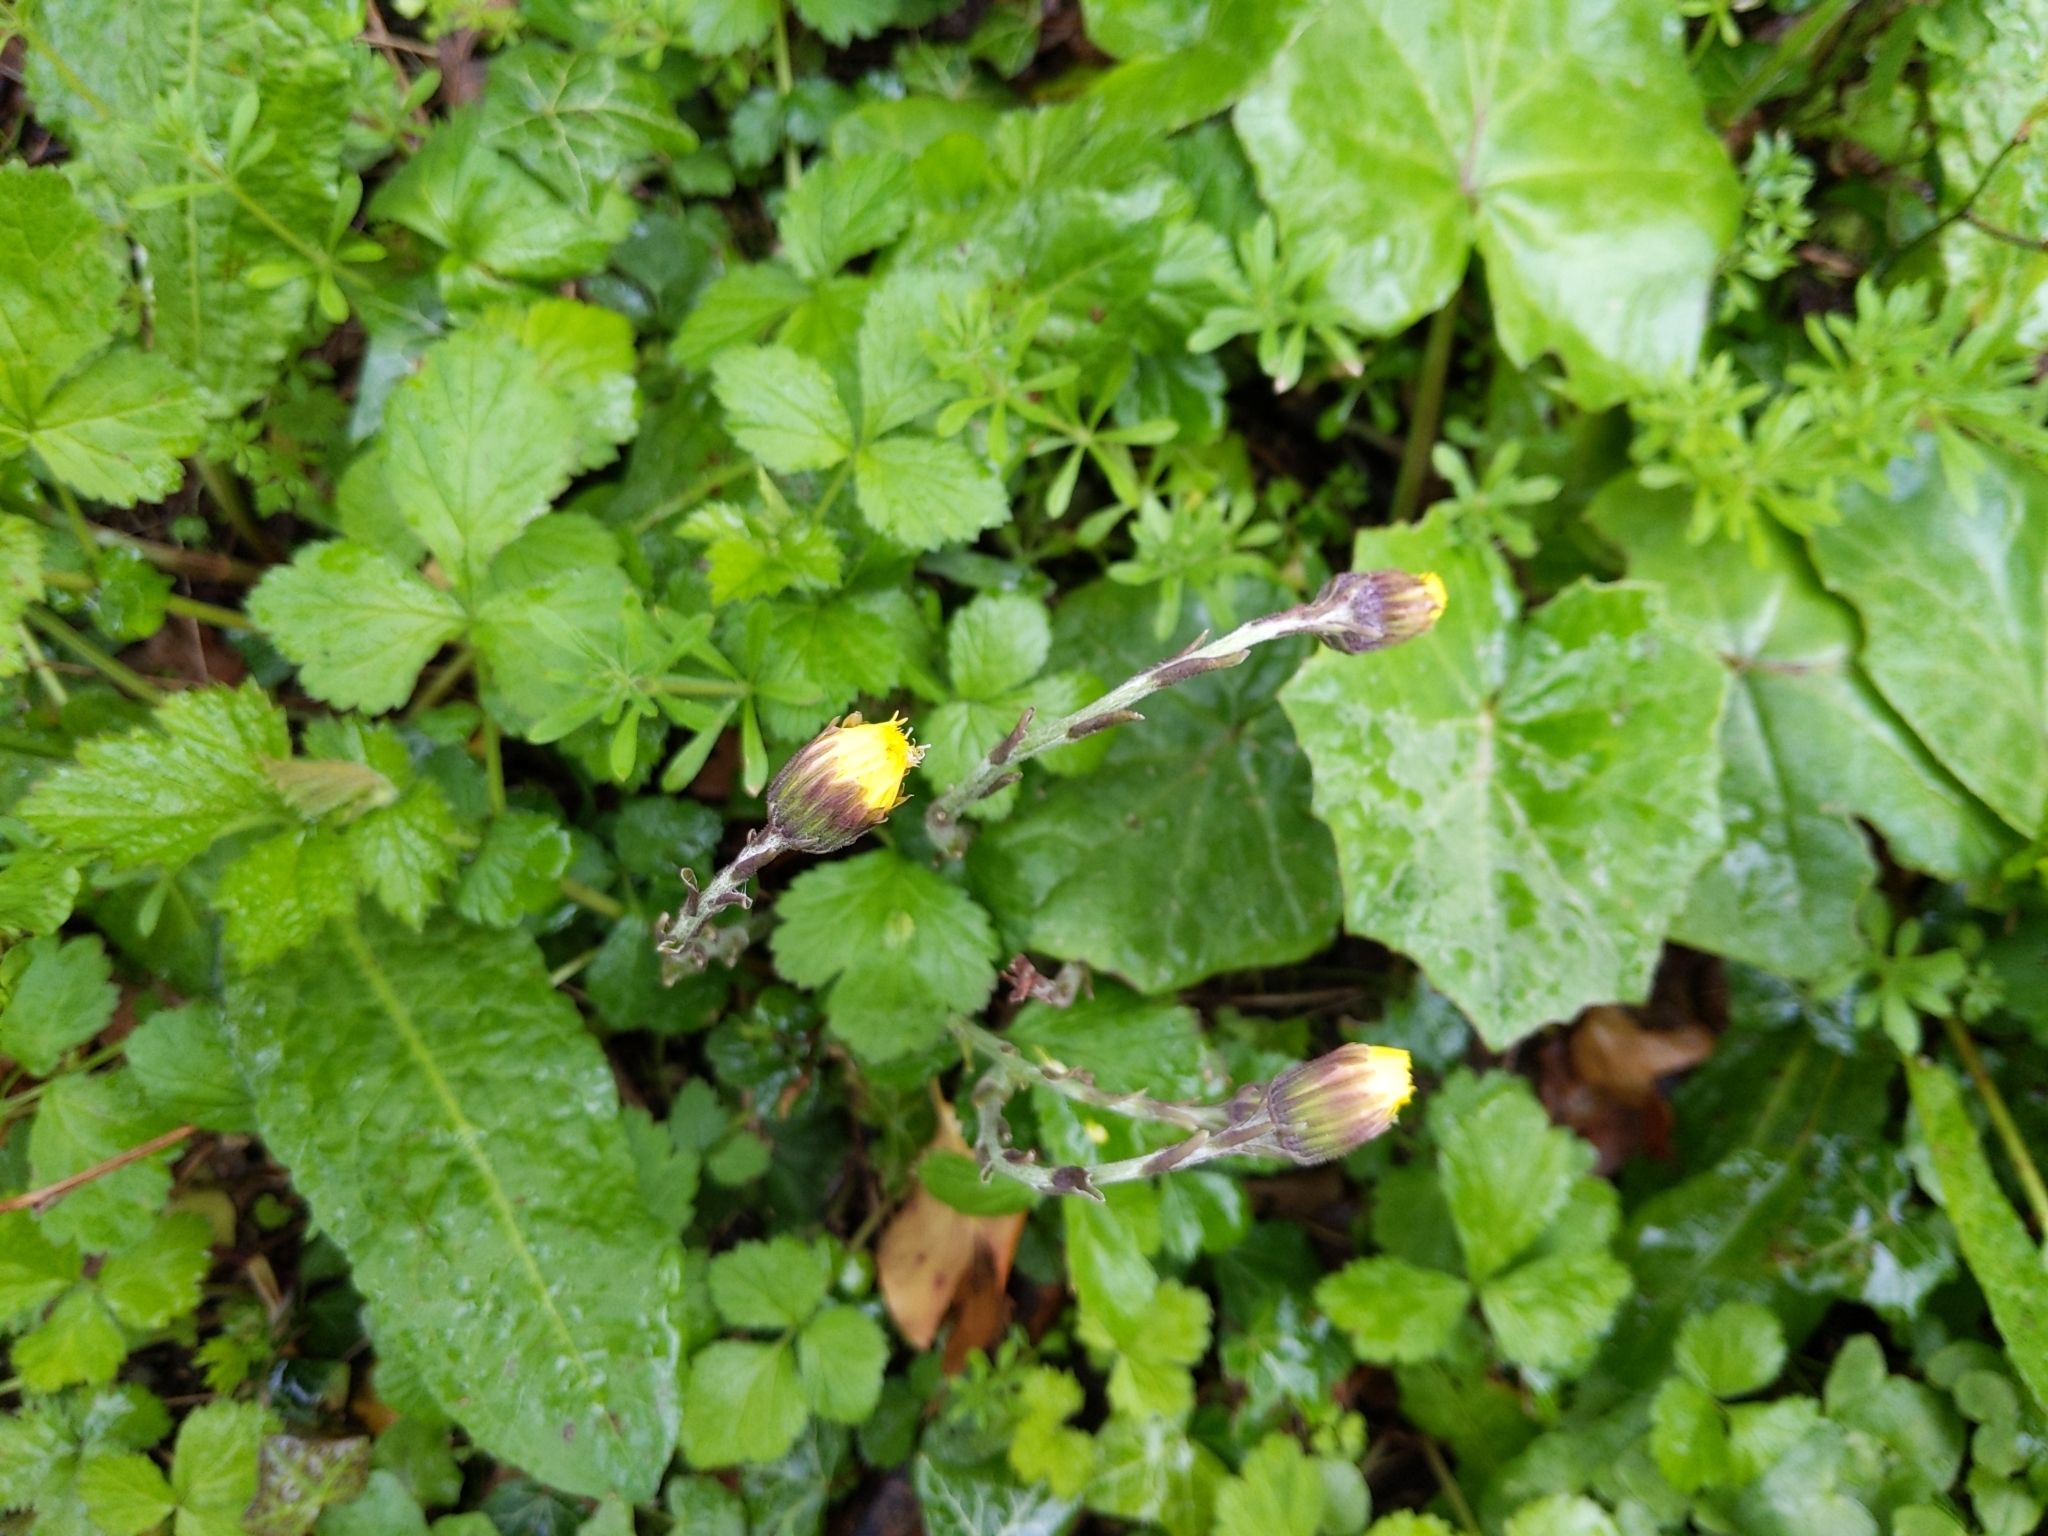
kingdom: Plantae
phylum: Tracheophyta
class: Magnoliopsida
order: Asterales
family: Asteraceae
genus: Tussilago
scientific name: Tussilago farfara
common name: Coltsfoot
